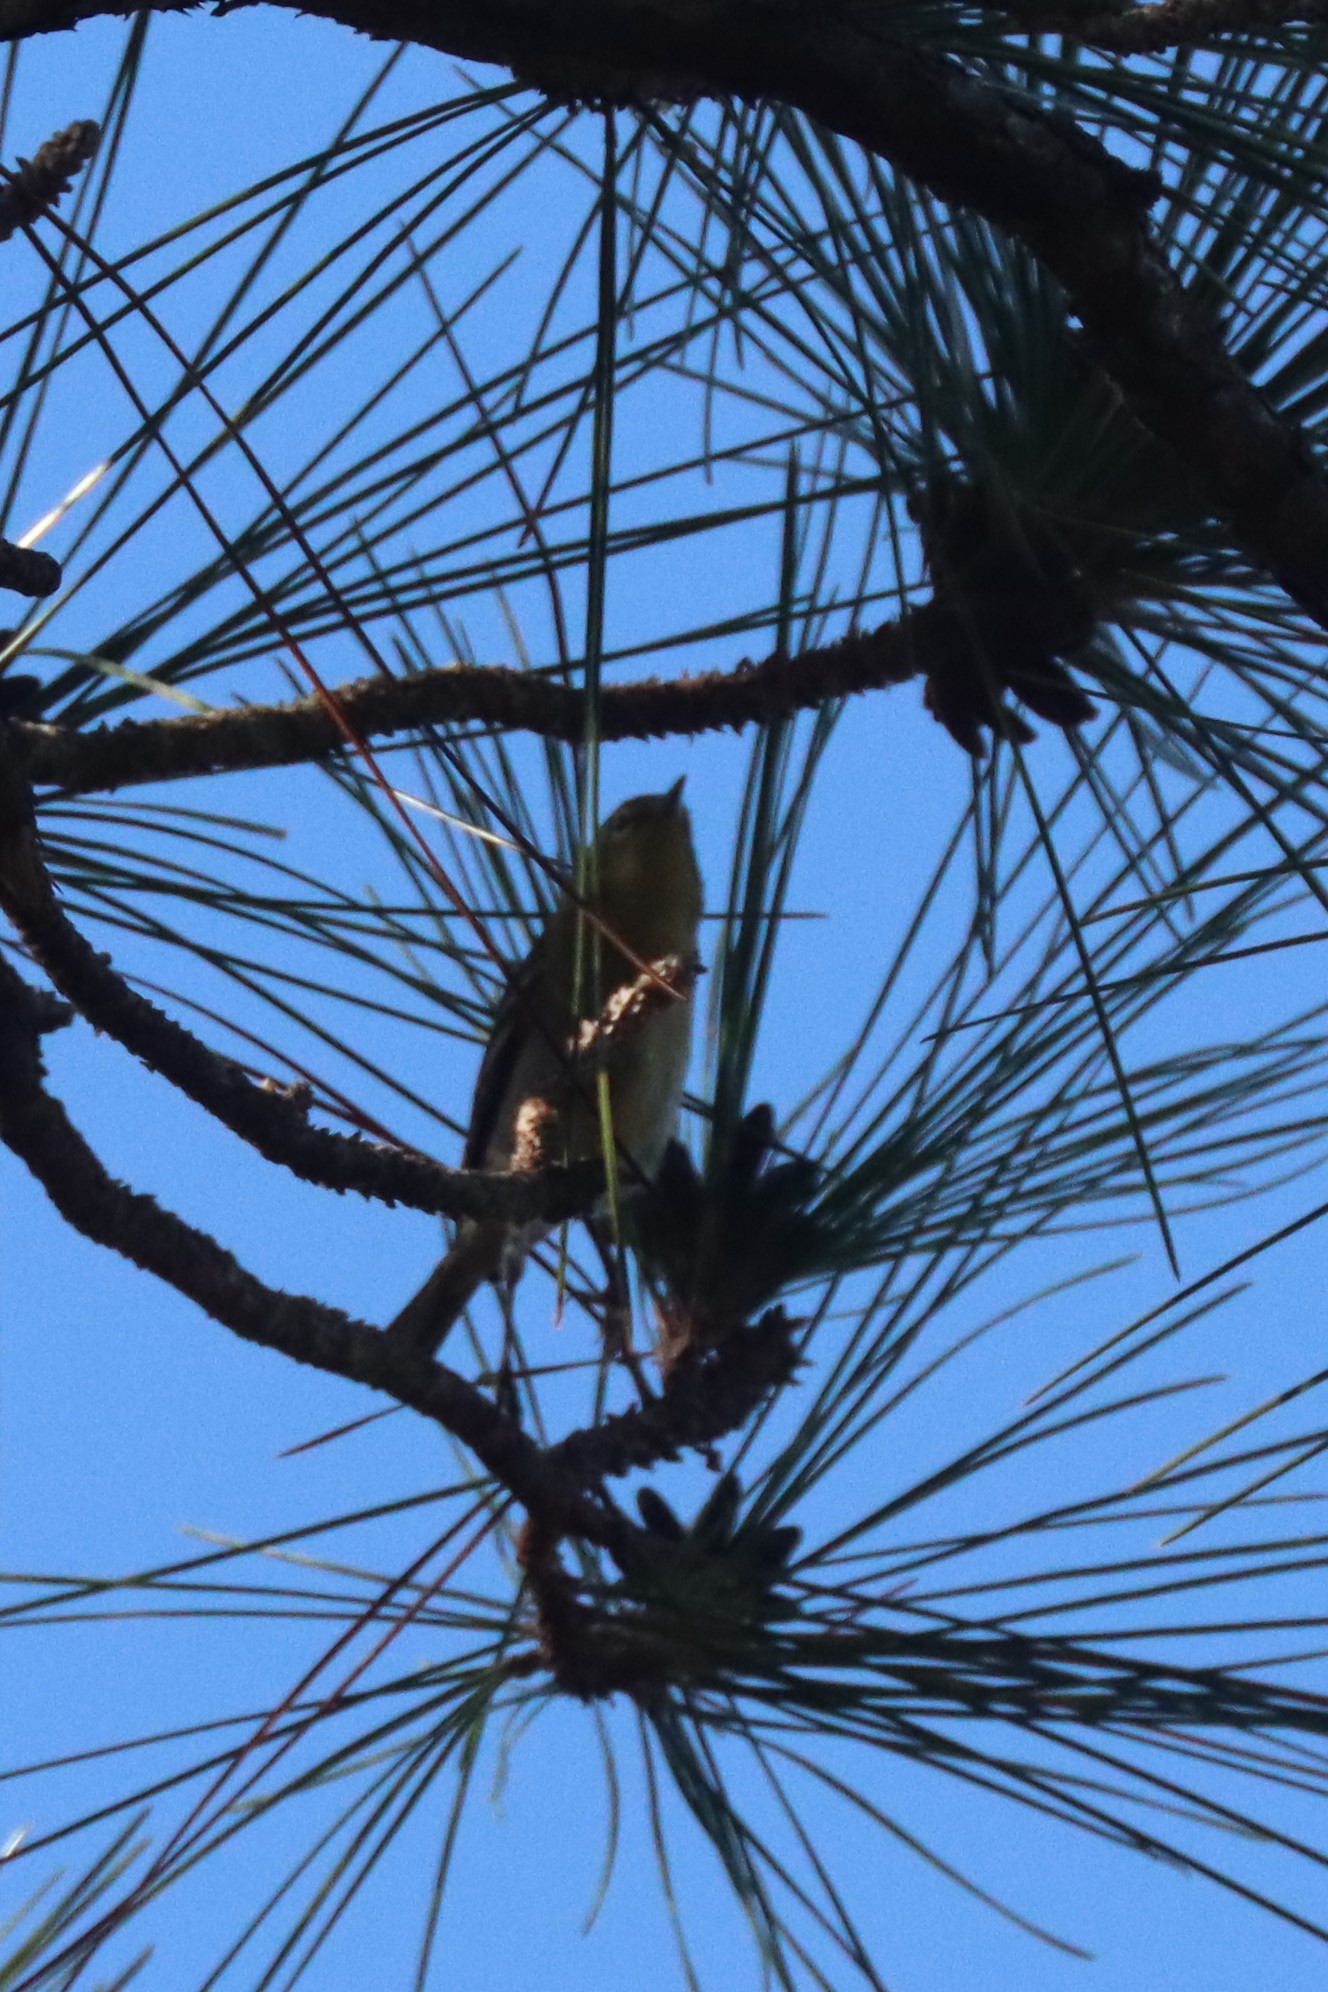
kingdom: Animalia
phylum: Chordata
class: Aves
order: Passeriformes
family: Parulidae
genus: Setophaga
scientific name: Setophaga pinus
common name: Pine warbler
